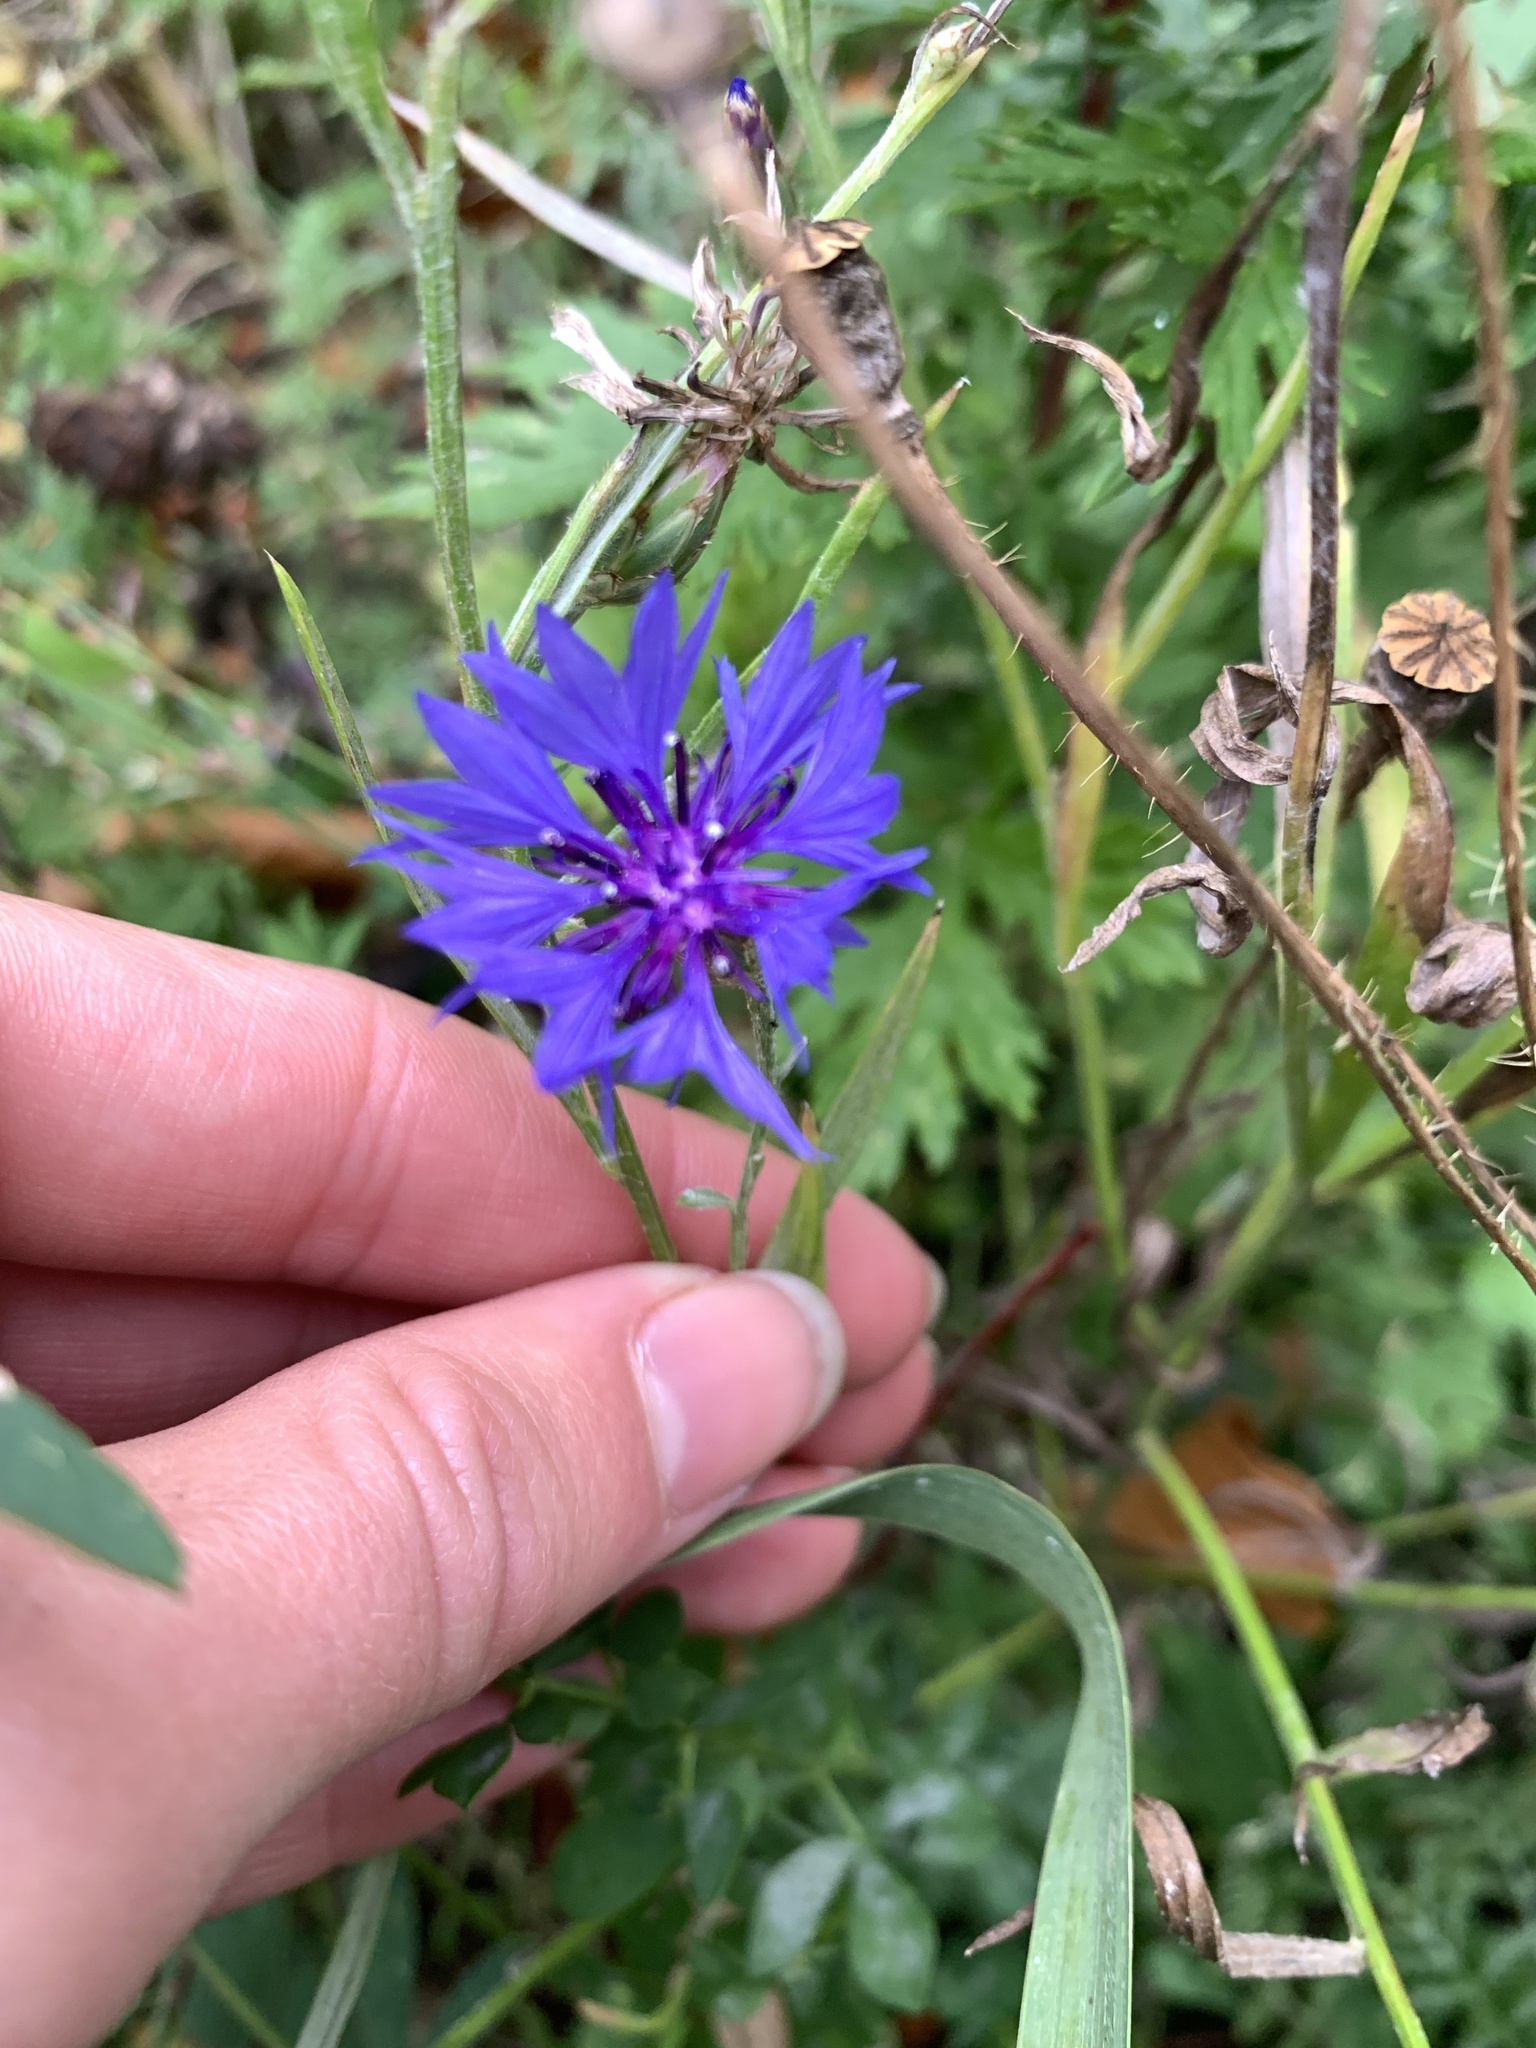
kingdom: Plantae
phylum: Tracheophyta
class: Magnoliopsida
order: Asterales
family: Asteraceae
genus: Centaurea
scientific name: Centaurea cyanus
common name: Cornflower
